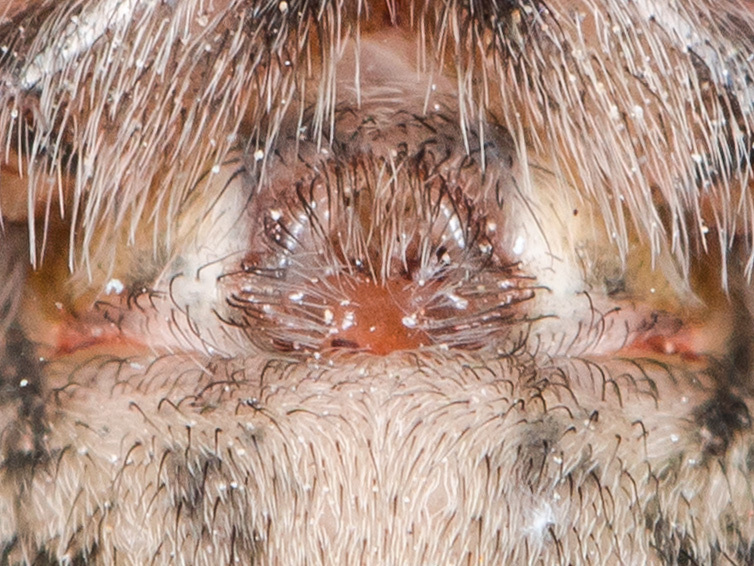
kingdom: Animalia
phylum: Arthropoda
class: Arachnida
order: Araneae
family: Agelenidae
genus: Eratigena
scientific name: Eratigena agrestis
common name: Hobo spider
